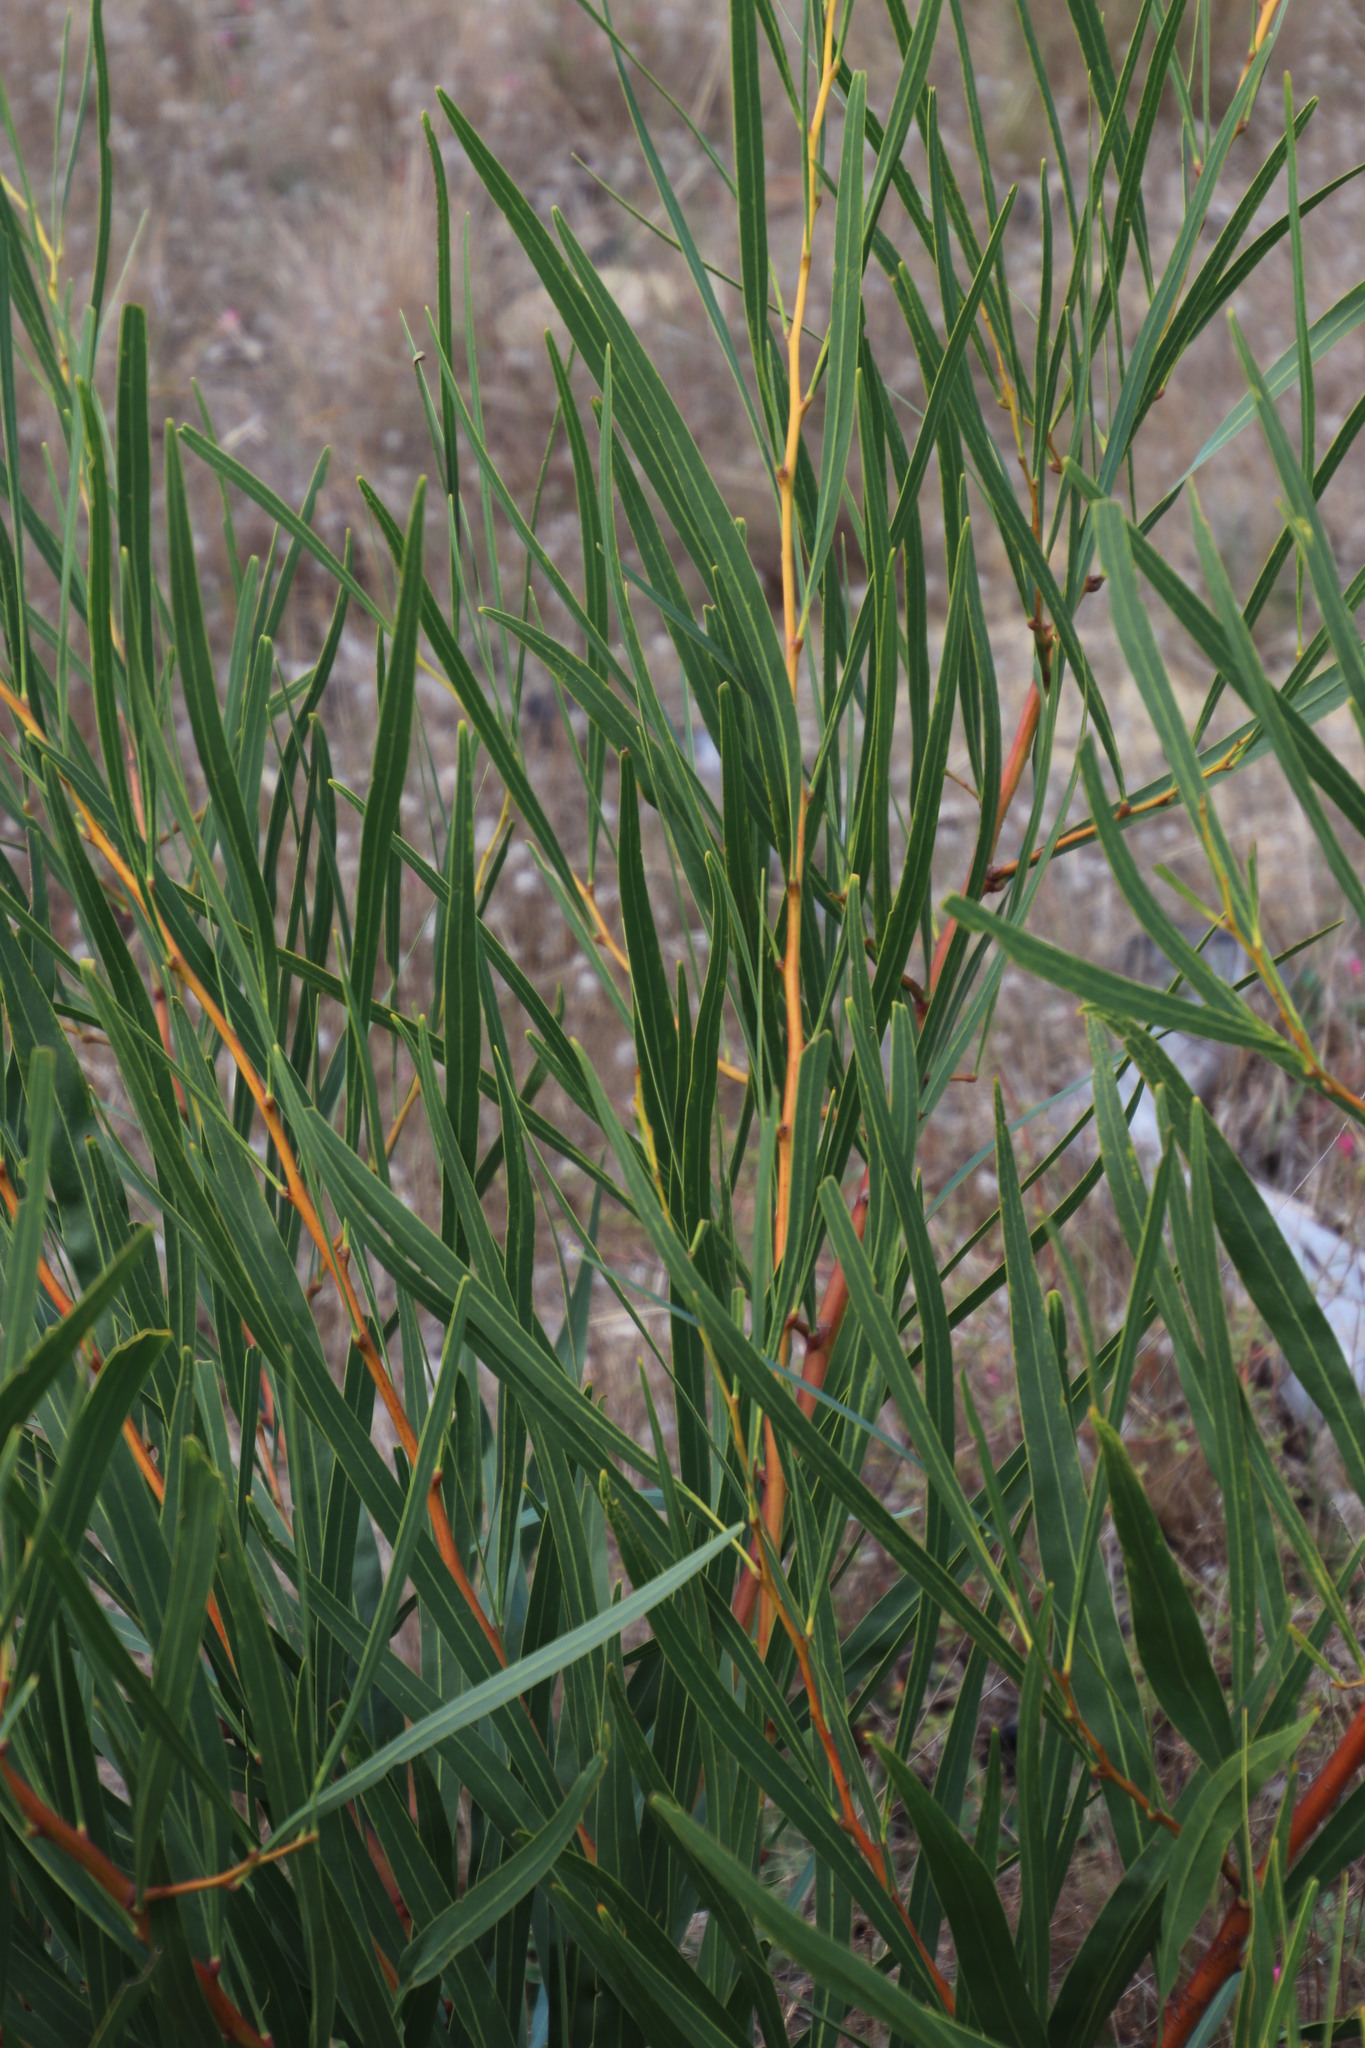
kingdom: Plantae
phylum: Tracheophyta
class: Magnoliopsida
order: Fabales
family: Fabaceae
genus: Acacia
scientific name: Acacia saligna
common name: Orange wattle
